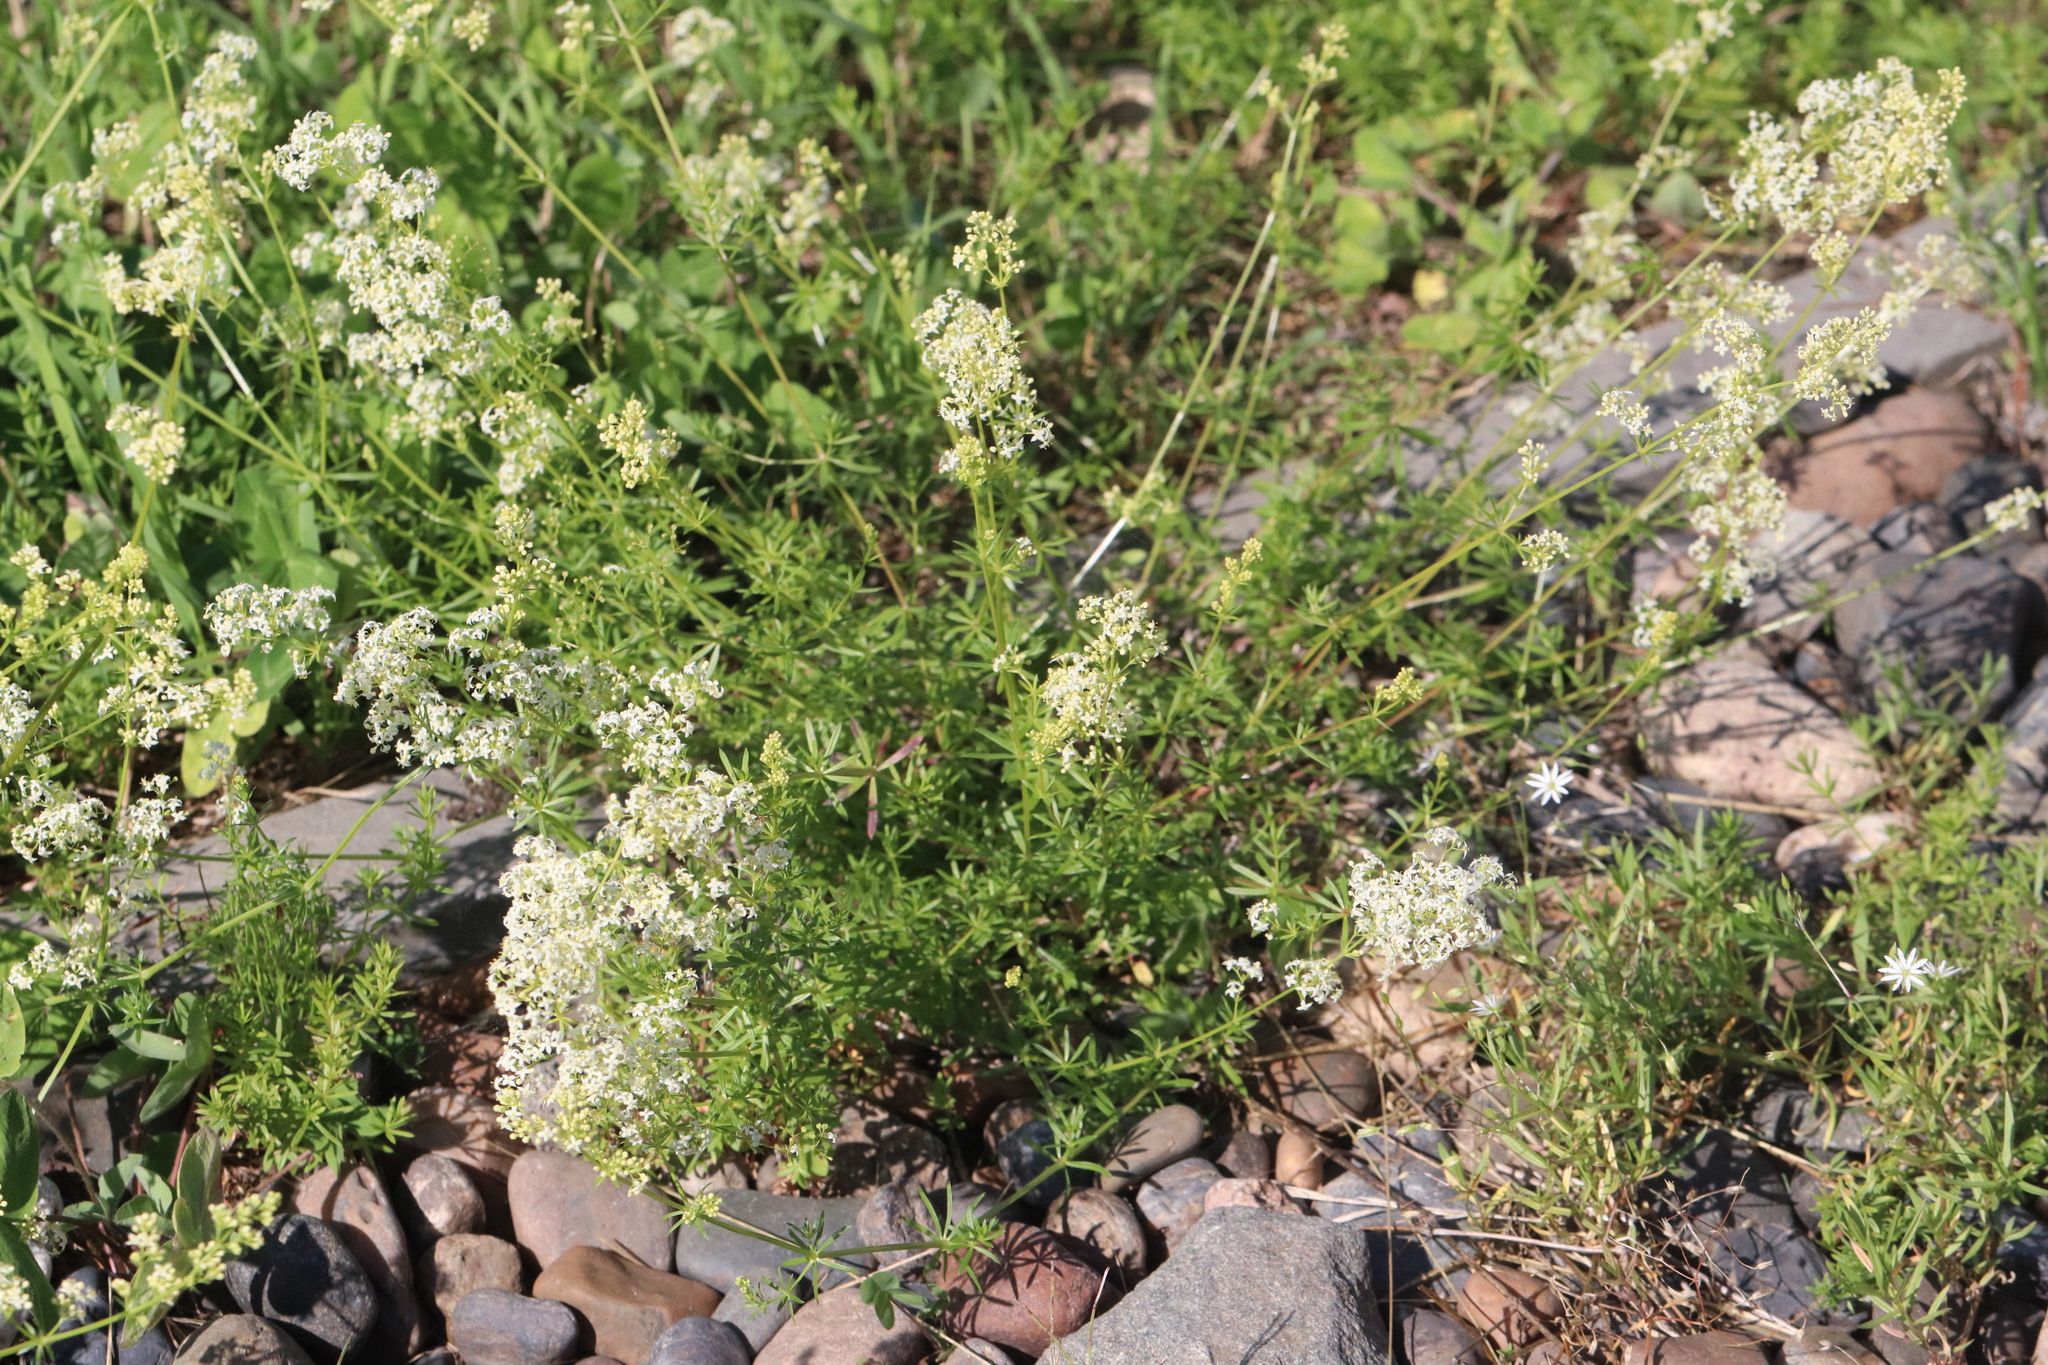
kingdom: Plantae
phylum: Tracheophyta
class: Magnoliopsida
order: Gentianales
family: Rubiaceae
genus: Galium
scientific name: Galium mollugo
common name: Hedge bedstraw
